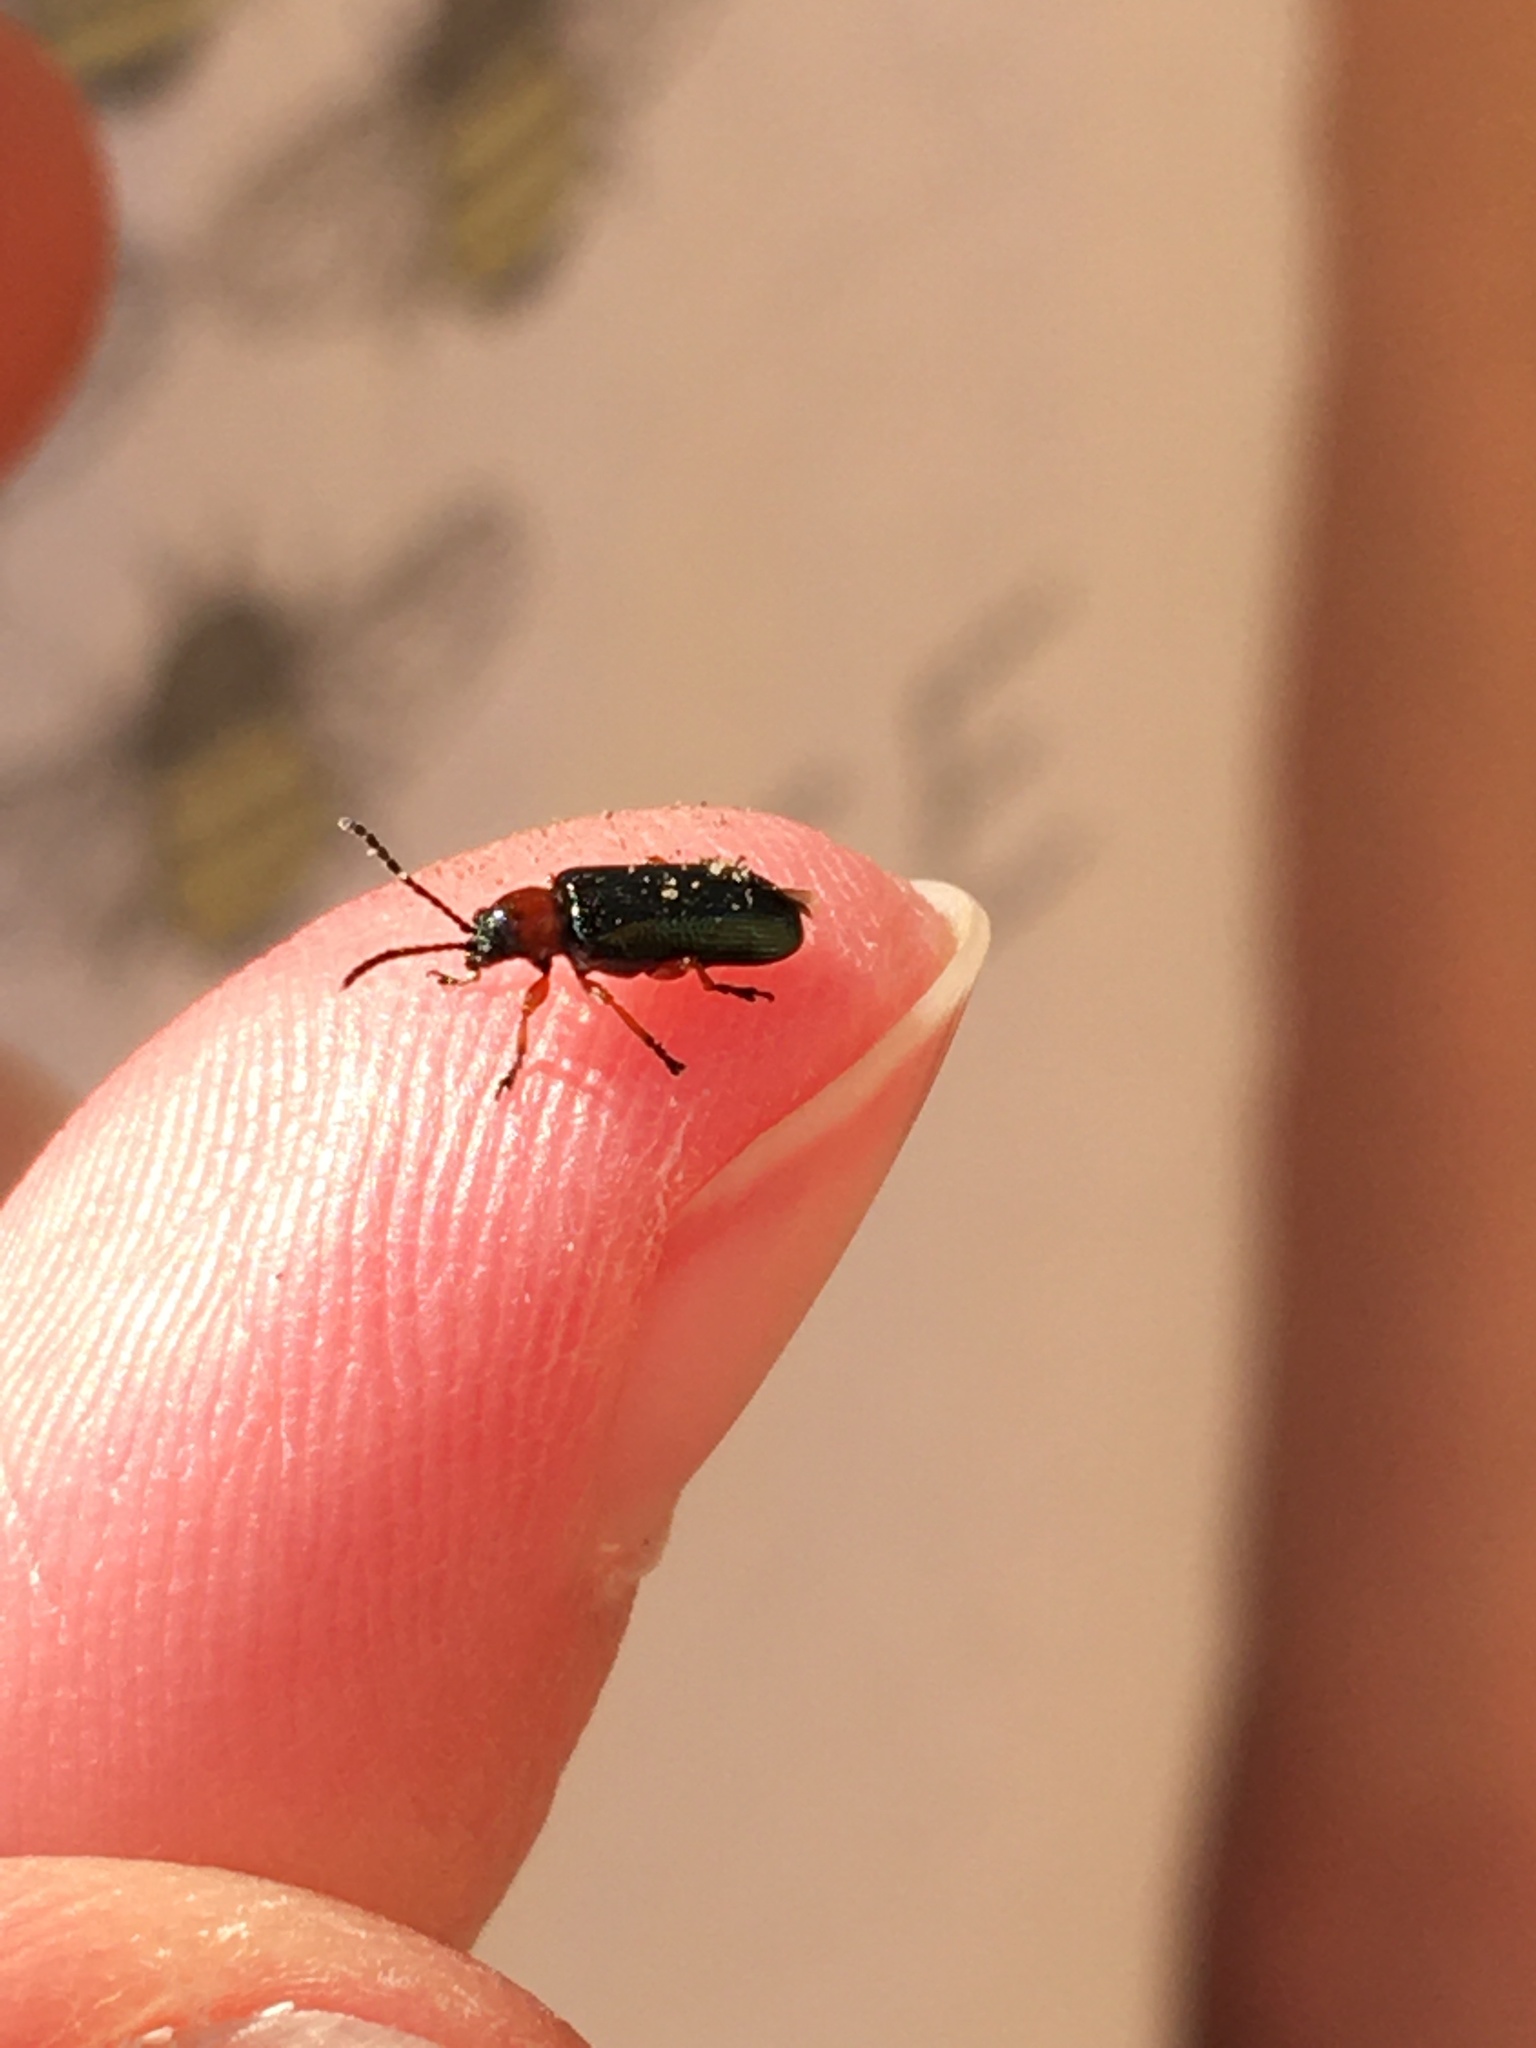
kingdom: Animalia
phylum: Arthropoda
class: Insecta
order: Coleoptera
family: Chrysomelidae
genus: Oulema
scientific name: Oulema
